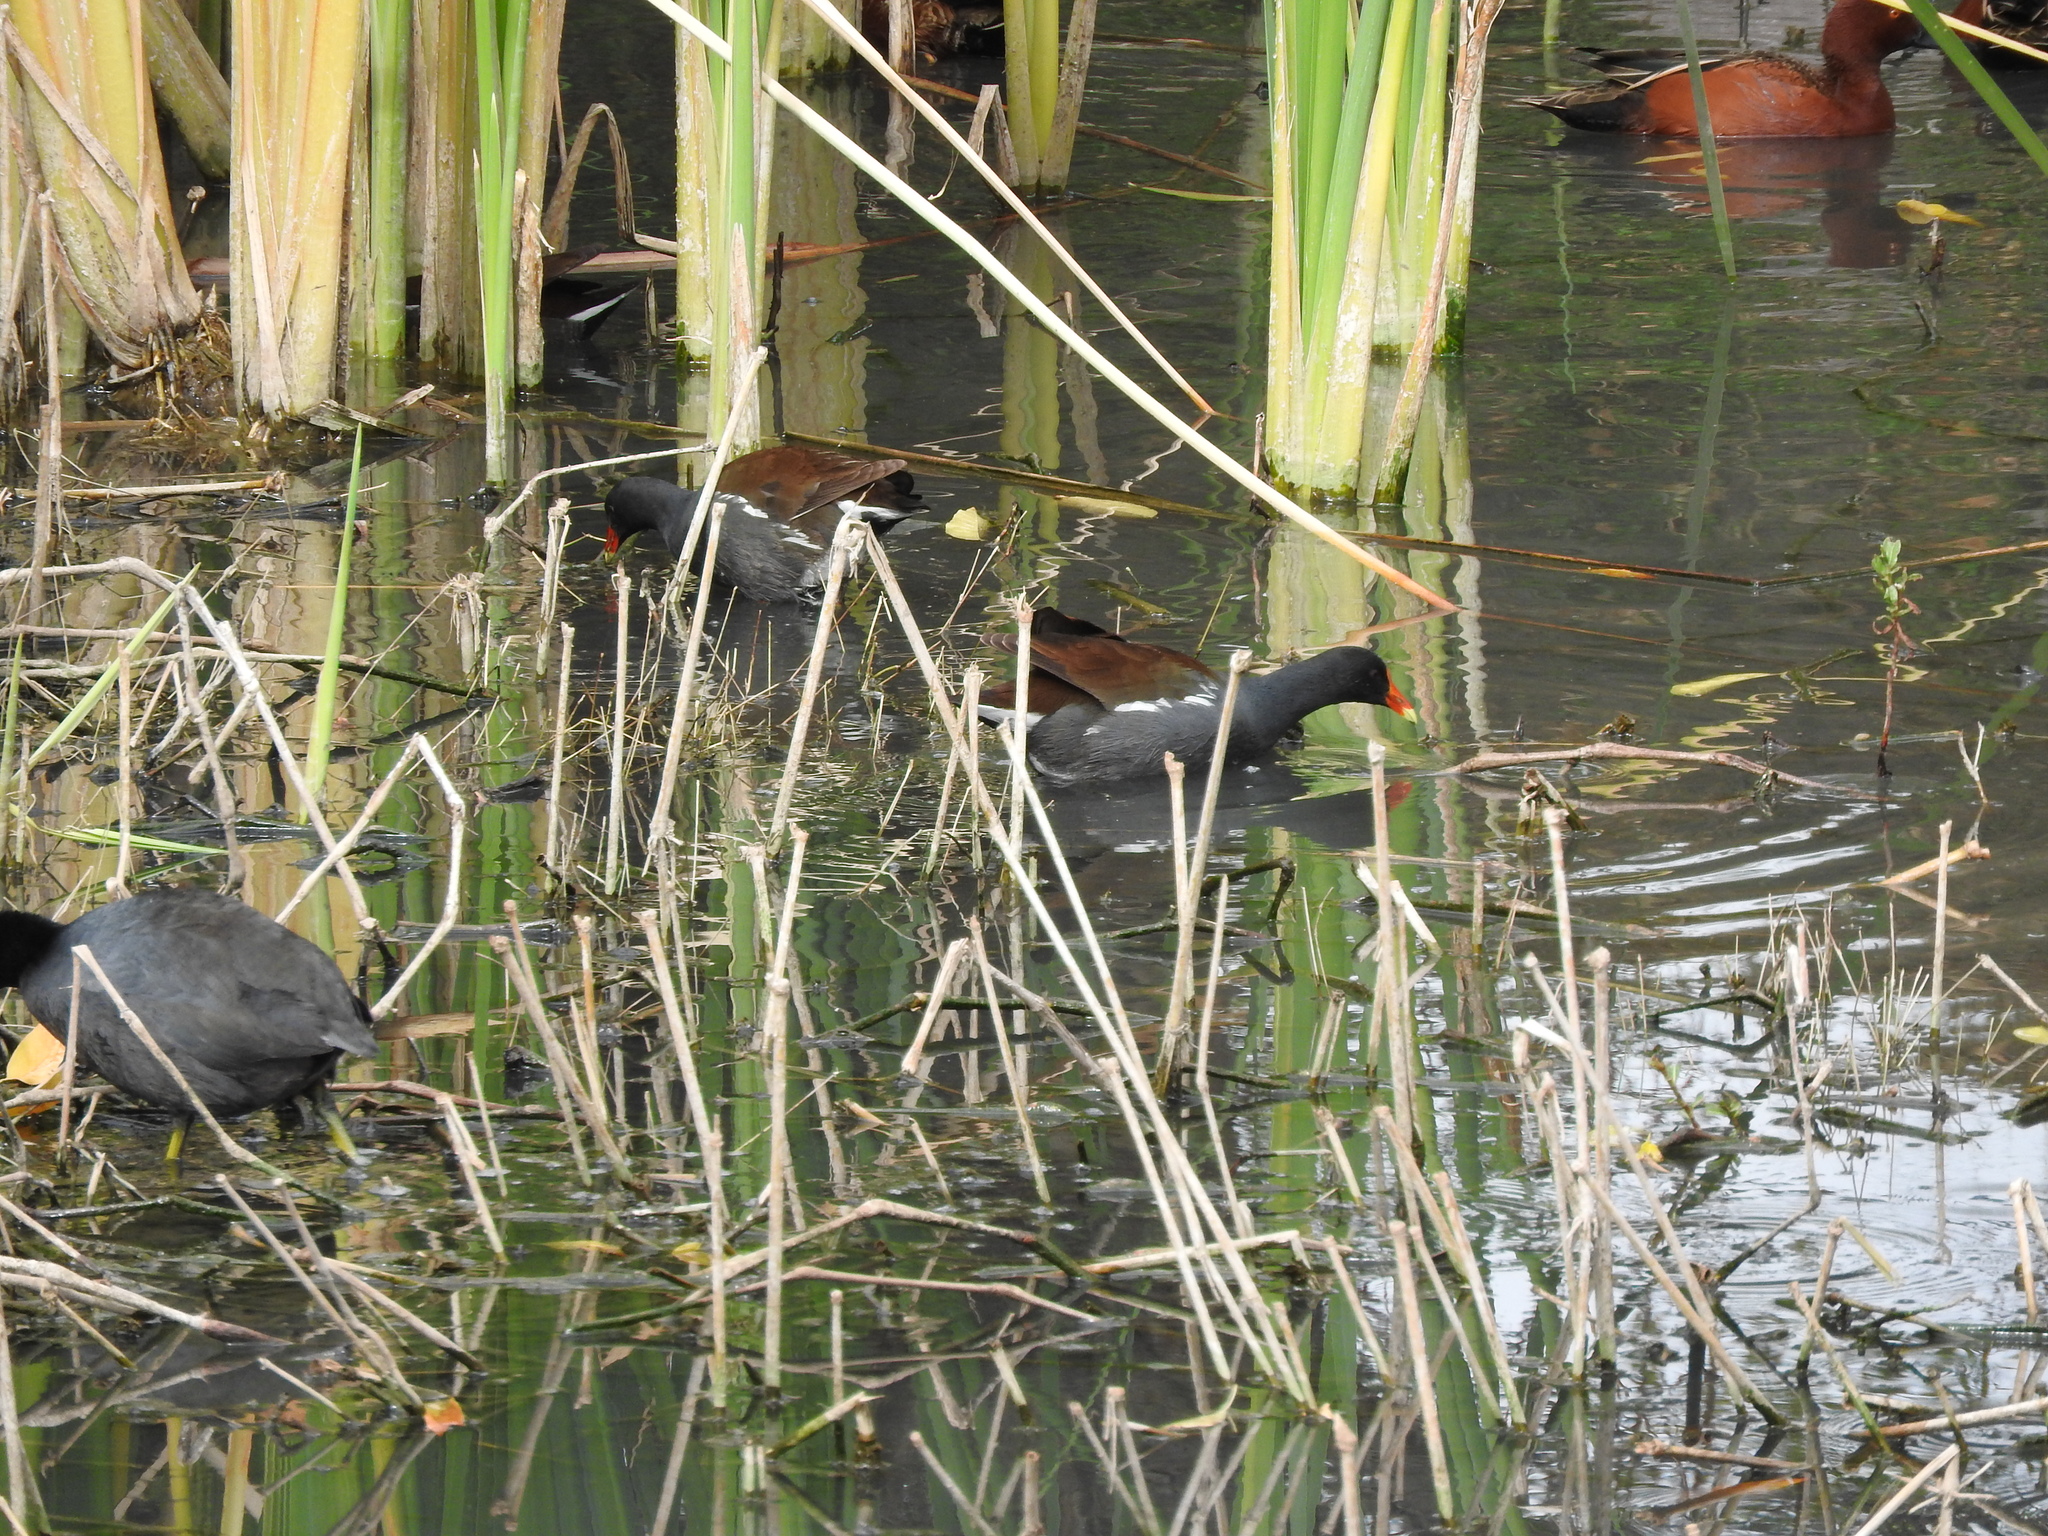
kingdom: Animalia
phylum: Chordata
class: Aves
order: Gruiformes
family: Rallidae
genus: Gallinula
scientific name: Gallinula chloropus
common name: Common moorhen
